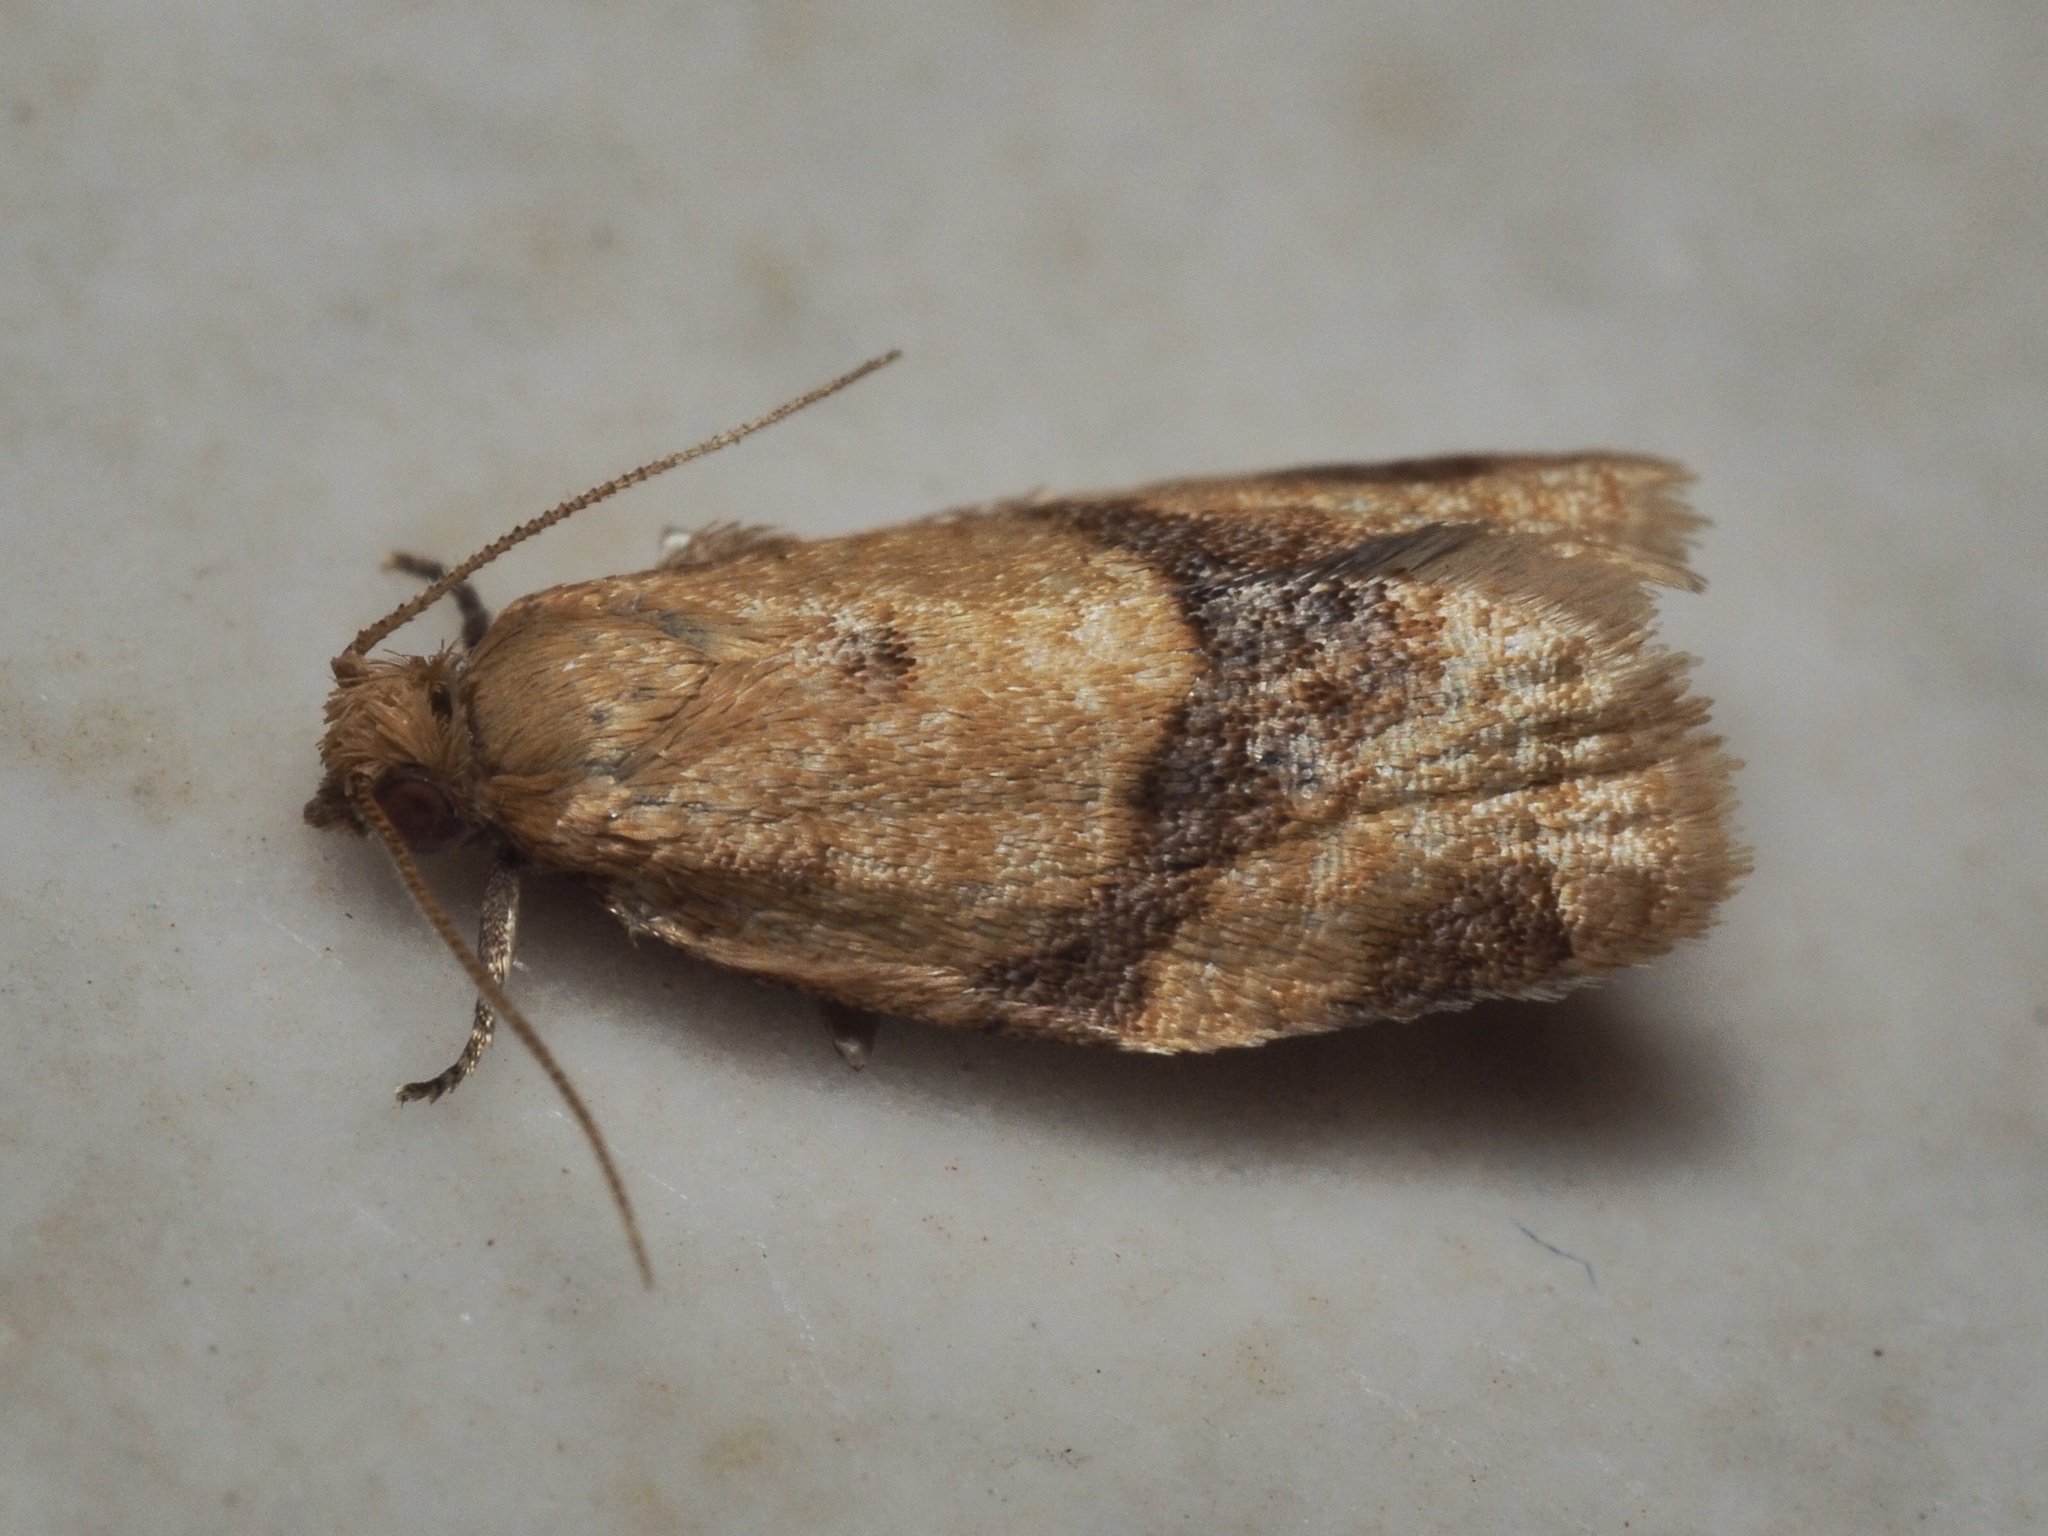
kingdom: Animalia
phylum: Arthropoda
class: Insecta
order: Lepidoptera
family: Tortricidae
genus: Clepsis
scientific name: Clepsis consimilana
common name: Privet tortrix
